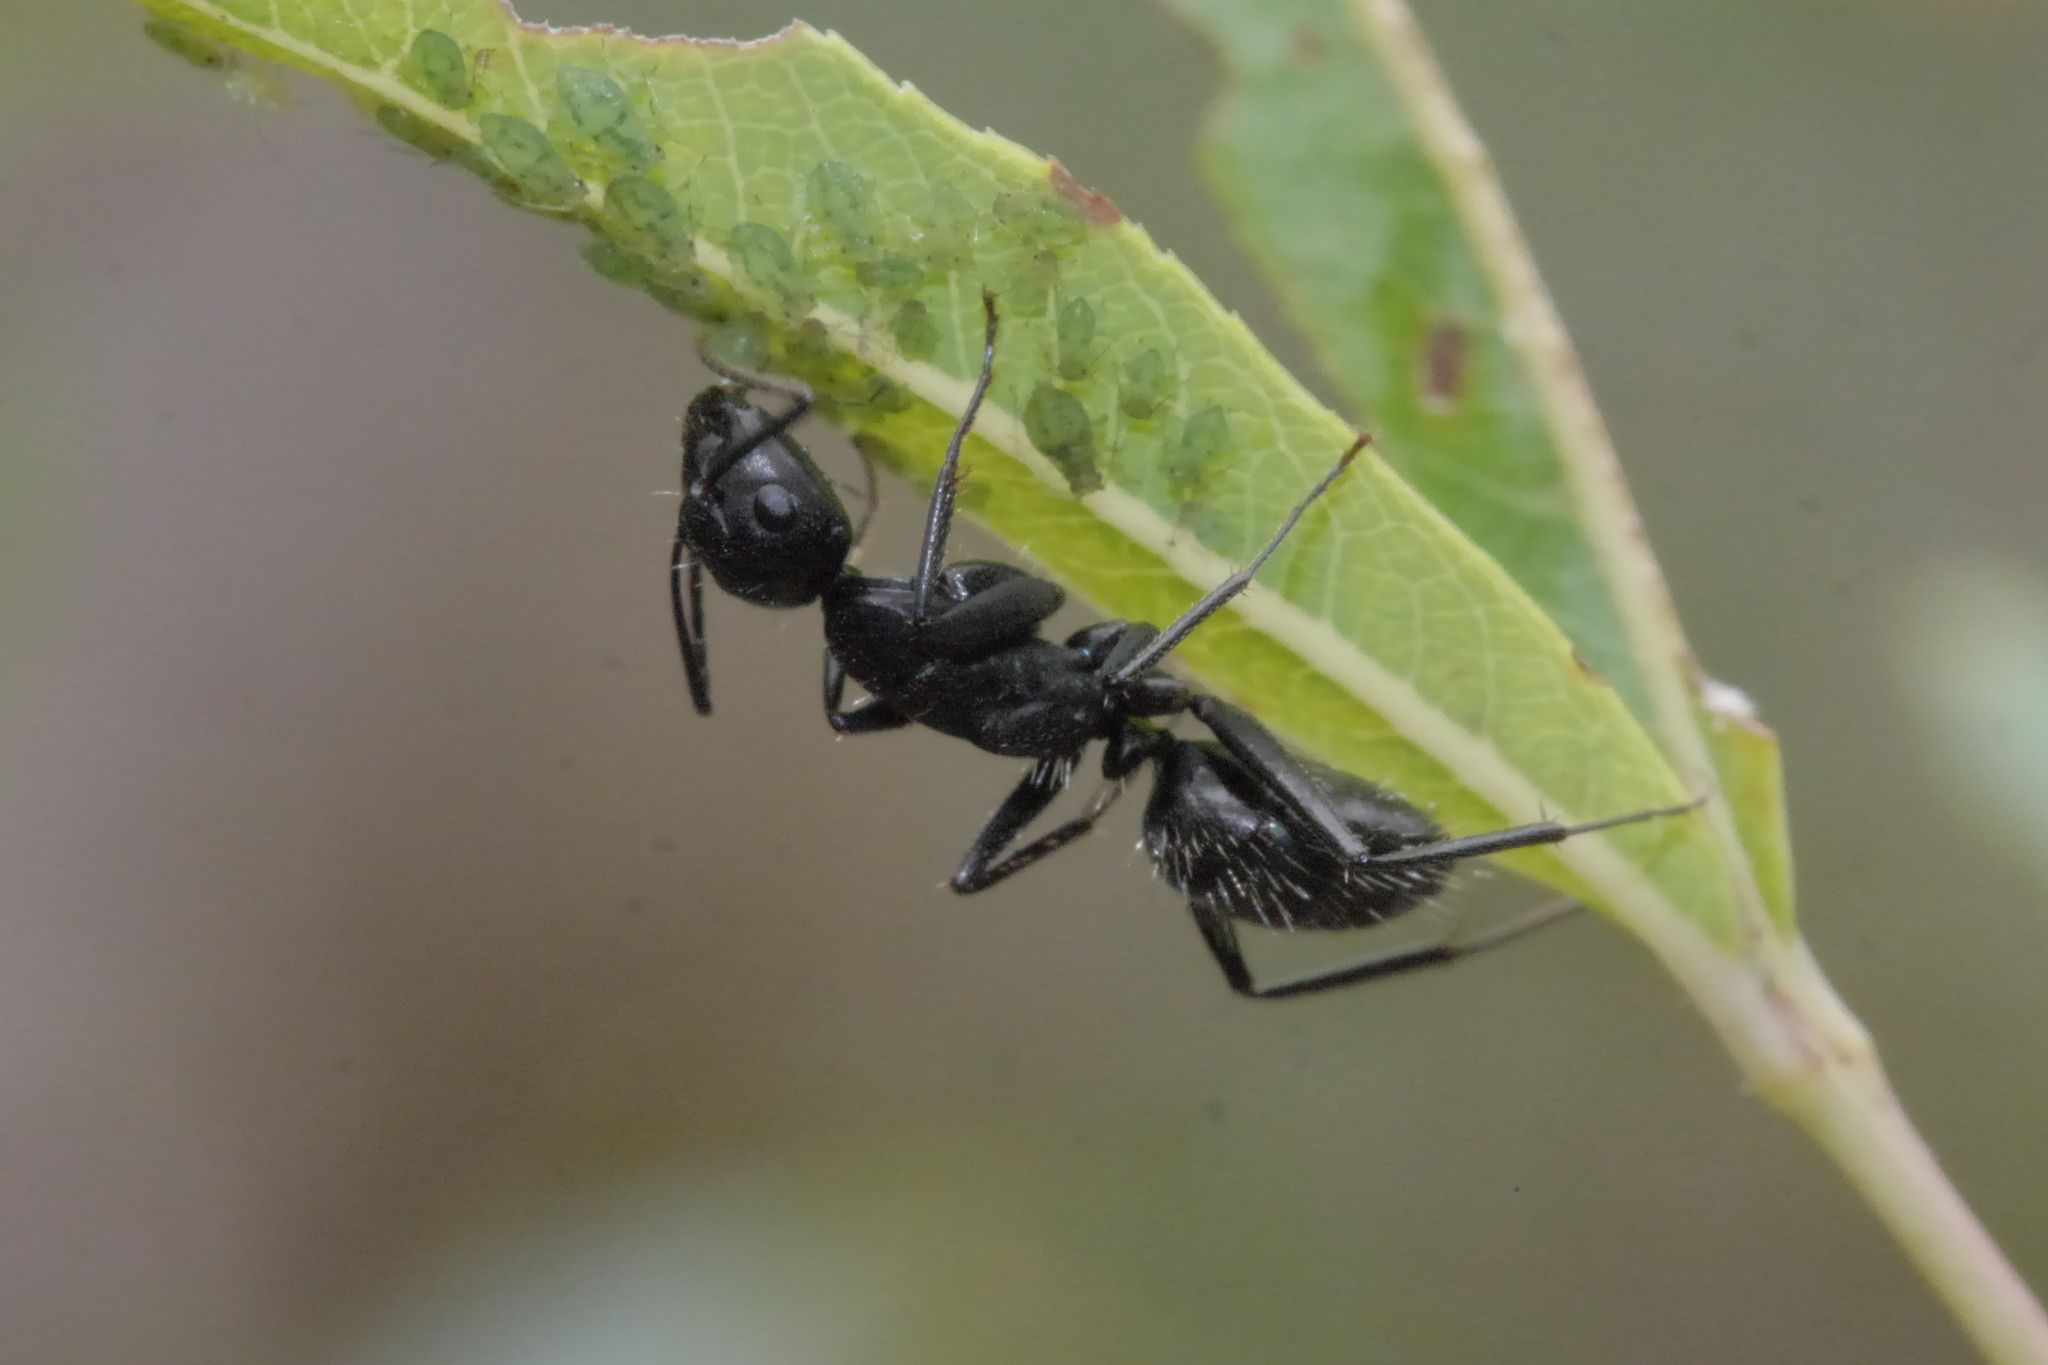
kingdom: Animalia
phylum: Arthropoda
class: Insecta
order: Hymenoptera
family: Formicidae
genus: Camponotus
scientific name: Camponotus vagus
